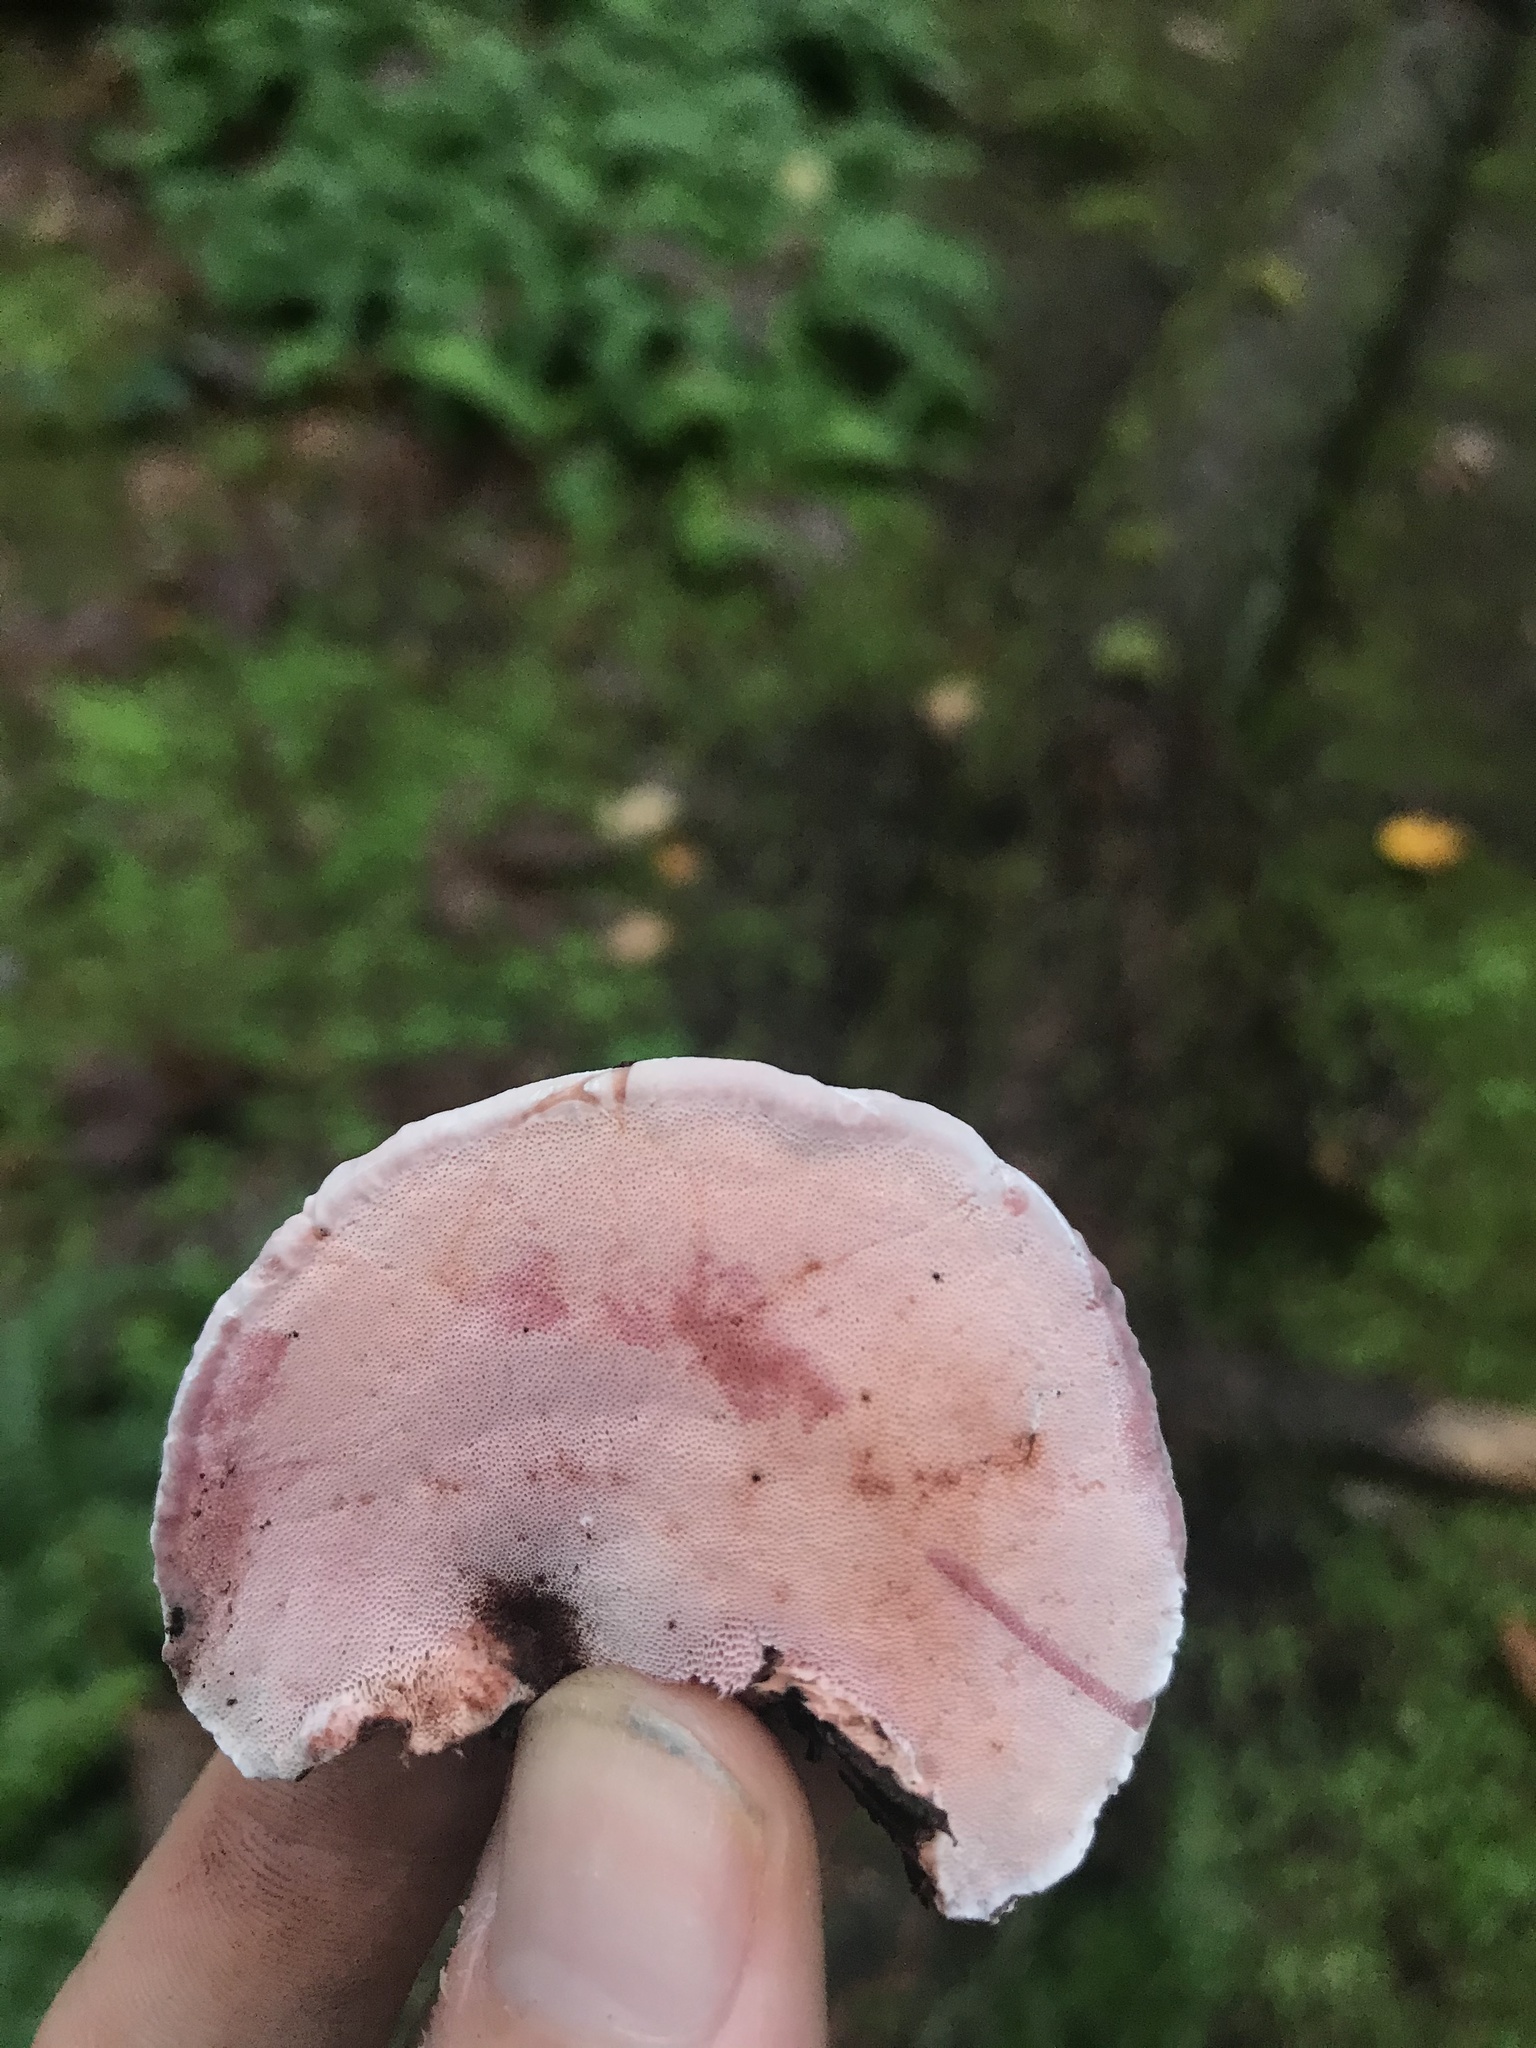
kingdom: Fungi
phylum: Basidiomycota
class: Agaricomycetes
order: Polyporales
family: Fomitopsidaceae
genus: Rhodofomes
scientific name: Rhodofomes cajanderi
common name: Rosy conk
